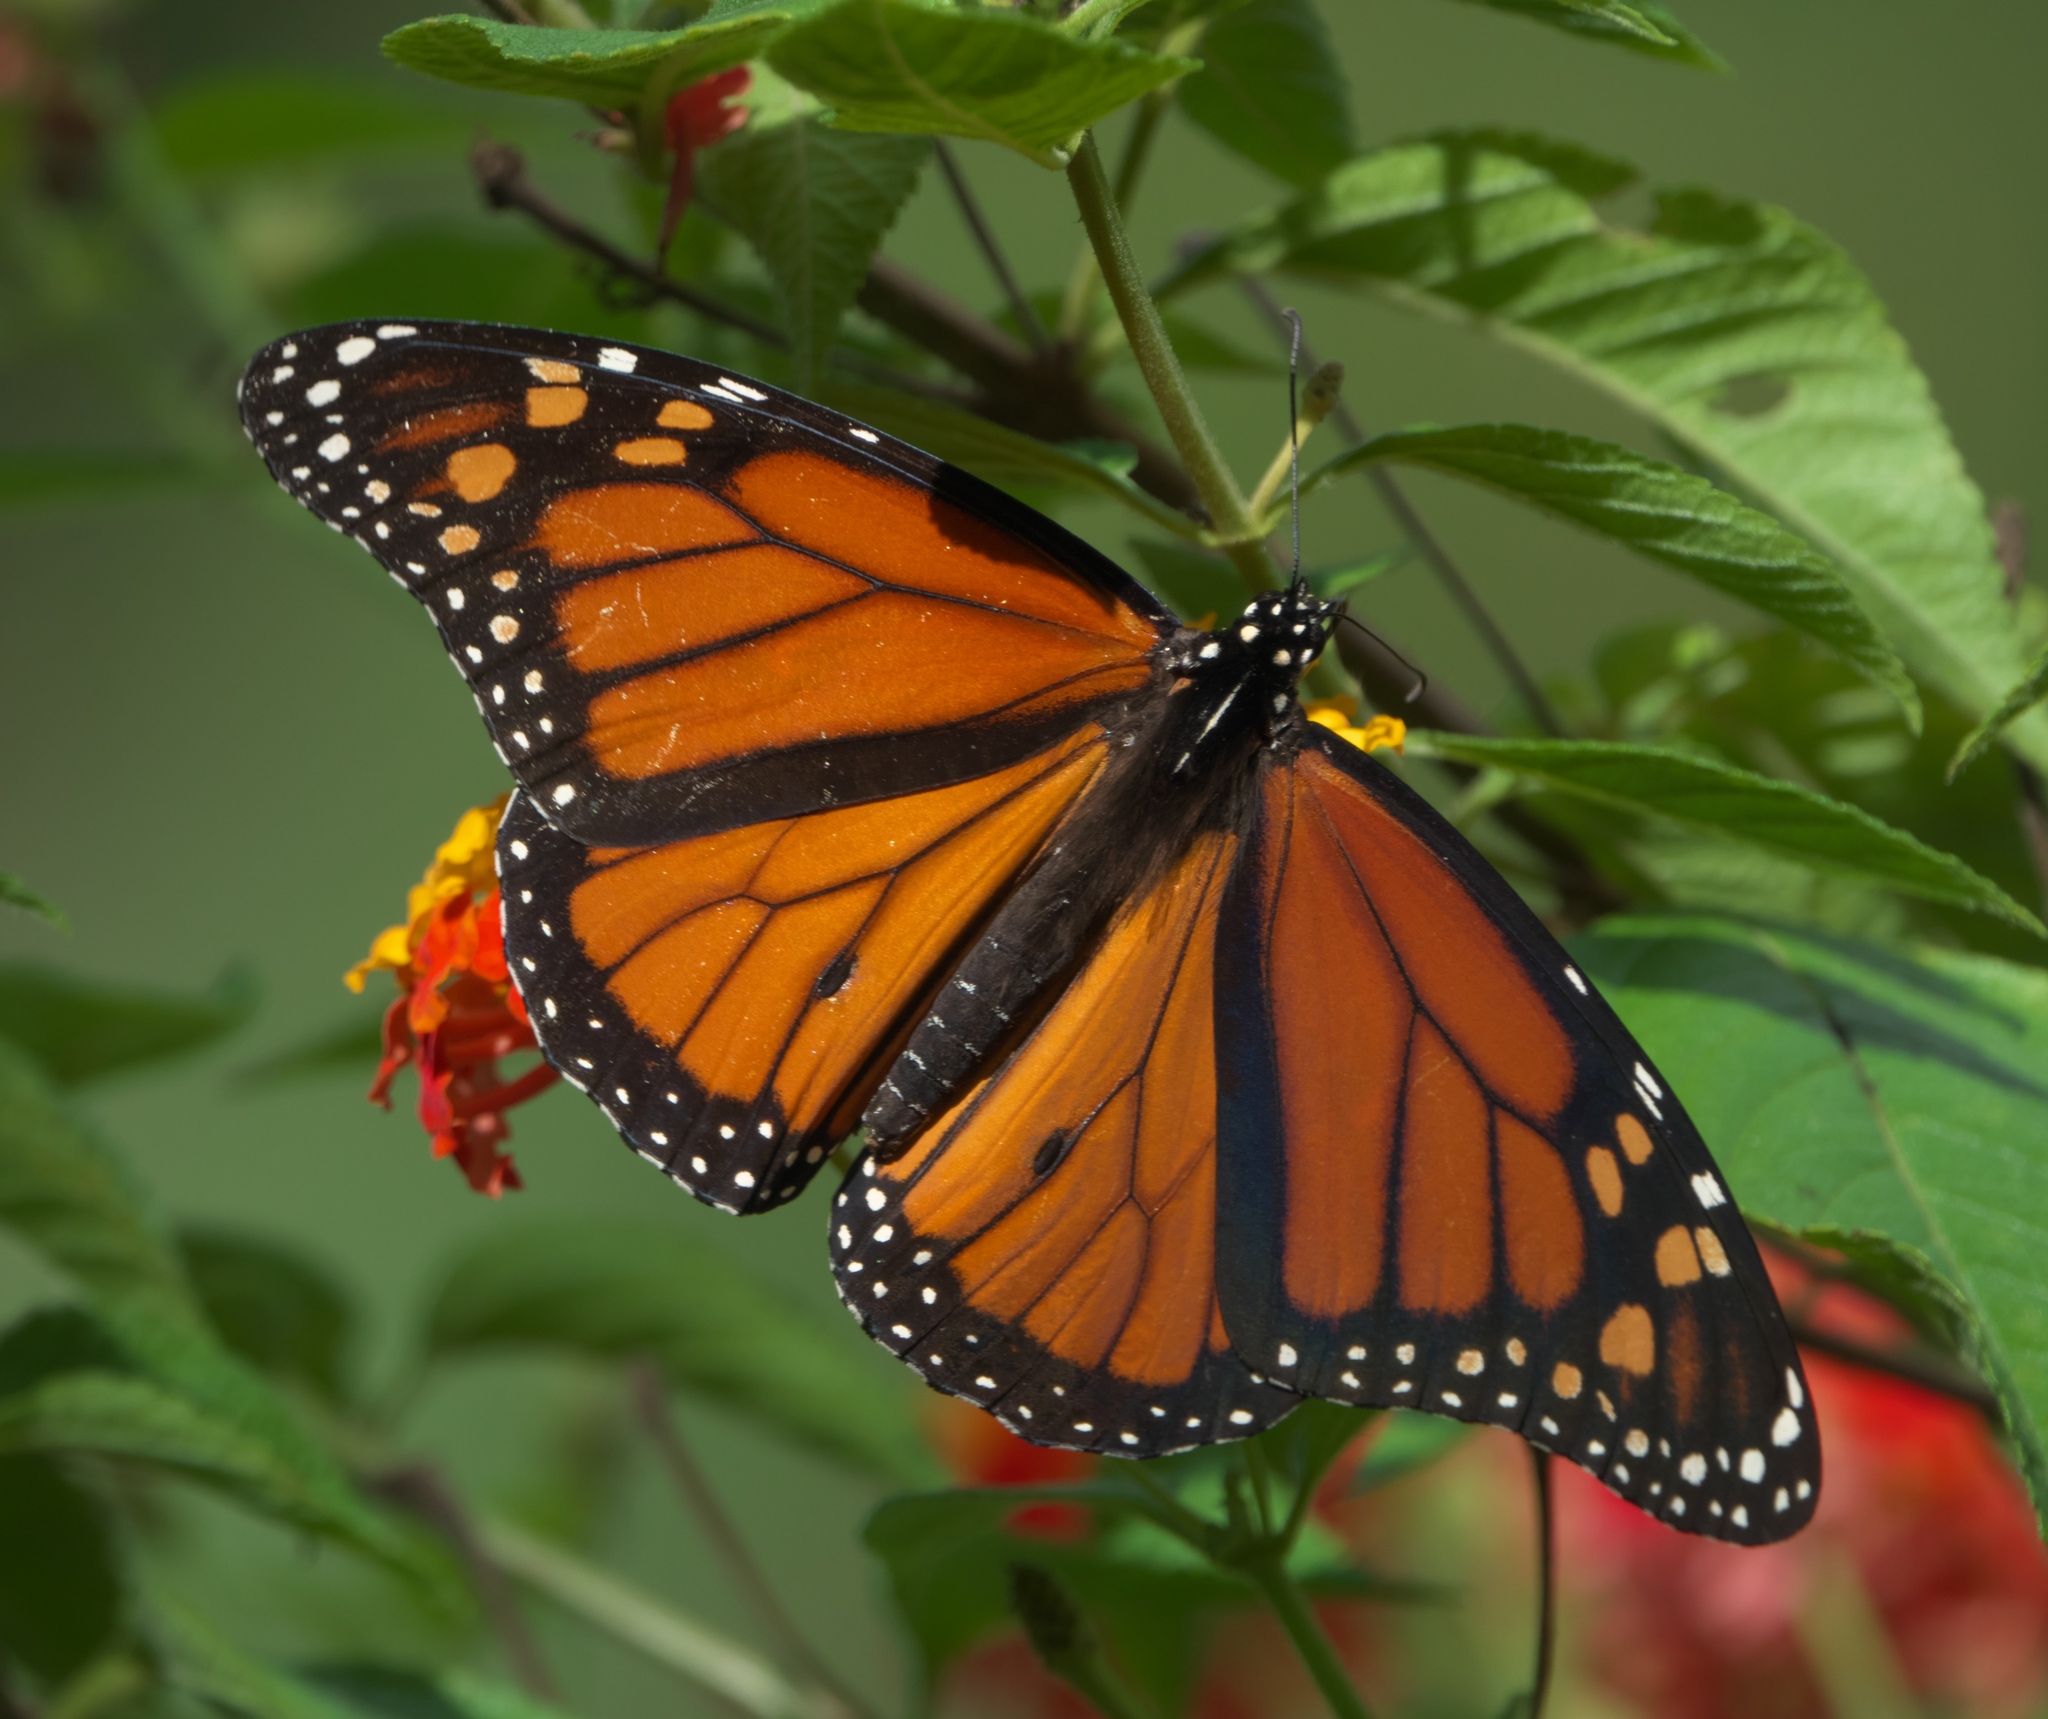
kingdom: Animalia
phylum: Arthropoda
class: Insecta
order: Lepidoptera
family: Nymphalidae
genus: Danaus
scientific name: Danaus plexippus
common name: Monarch
